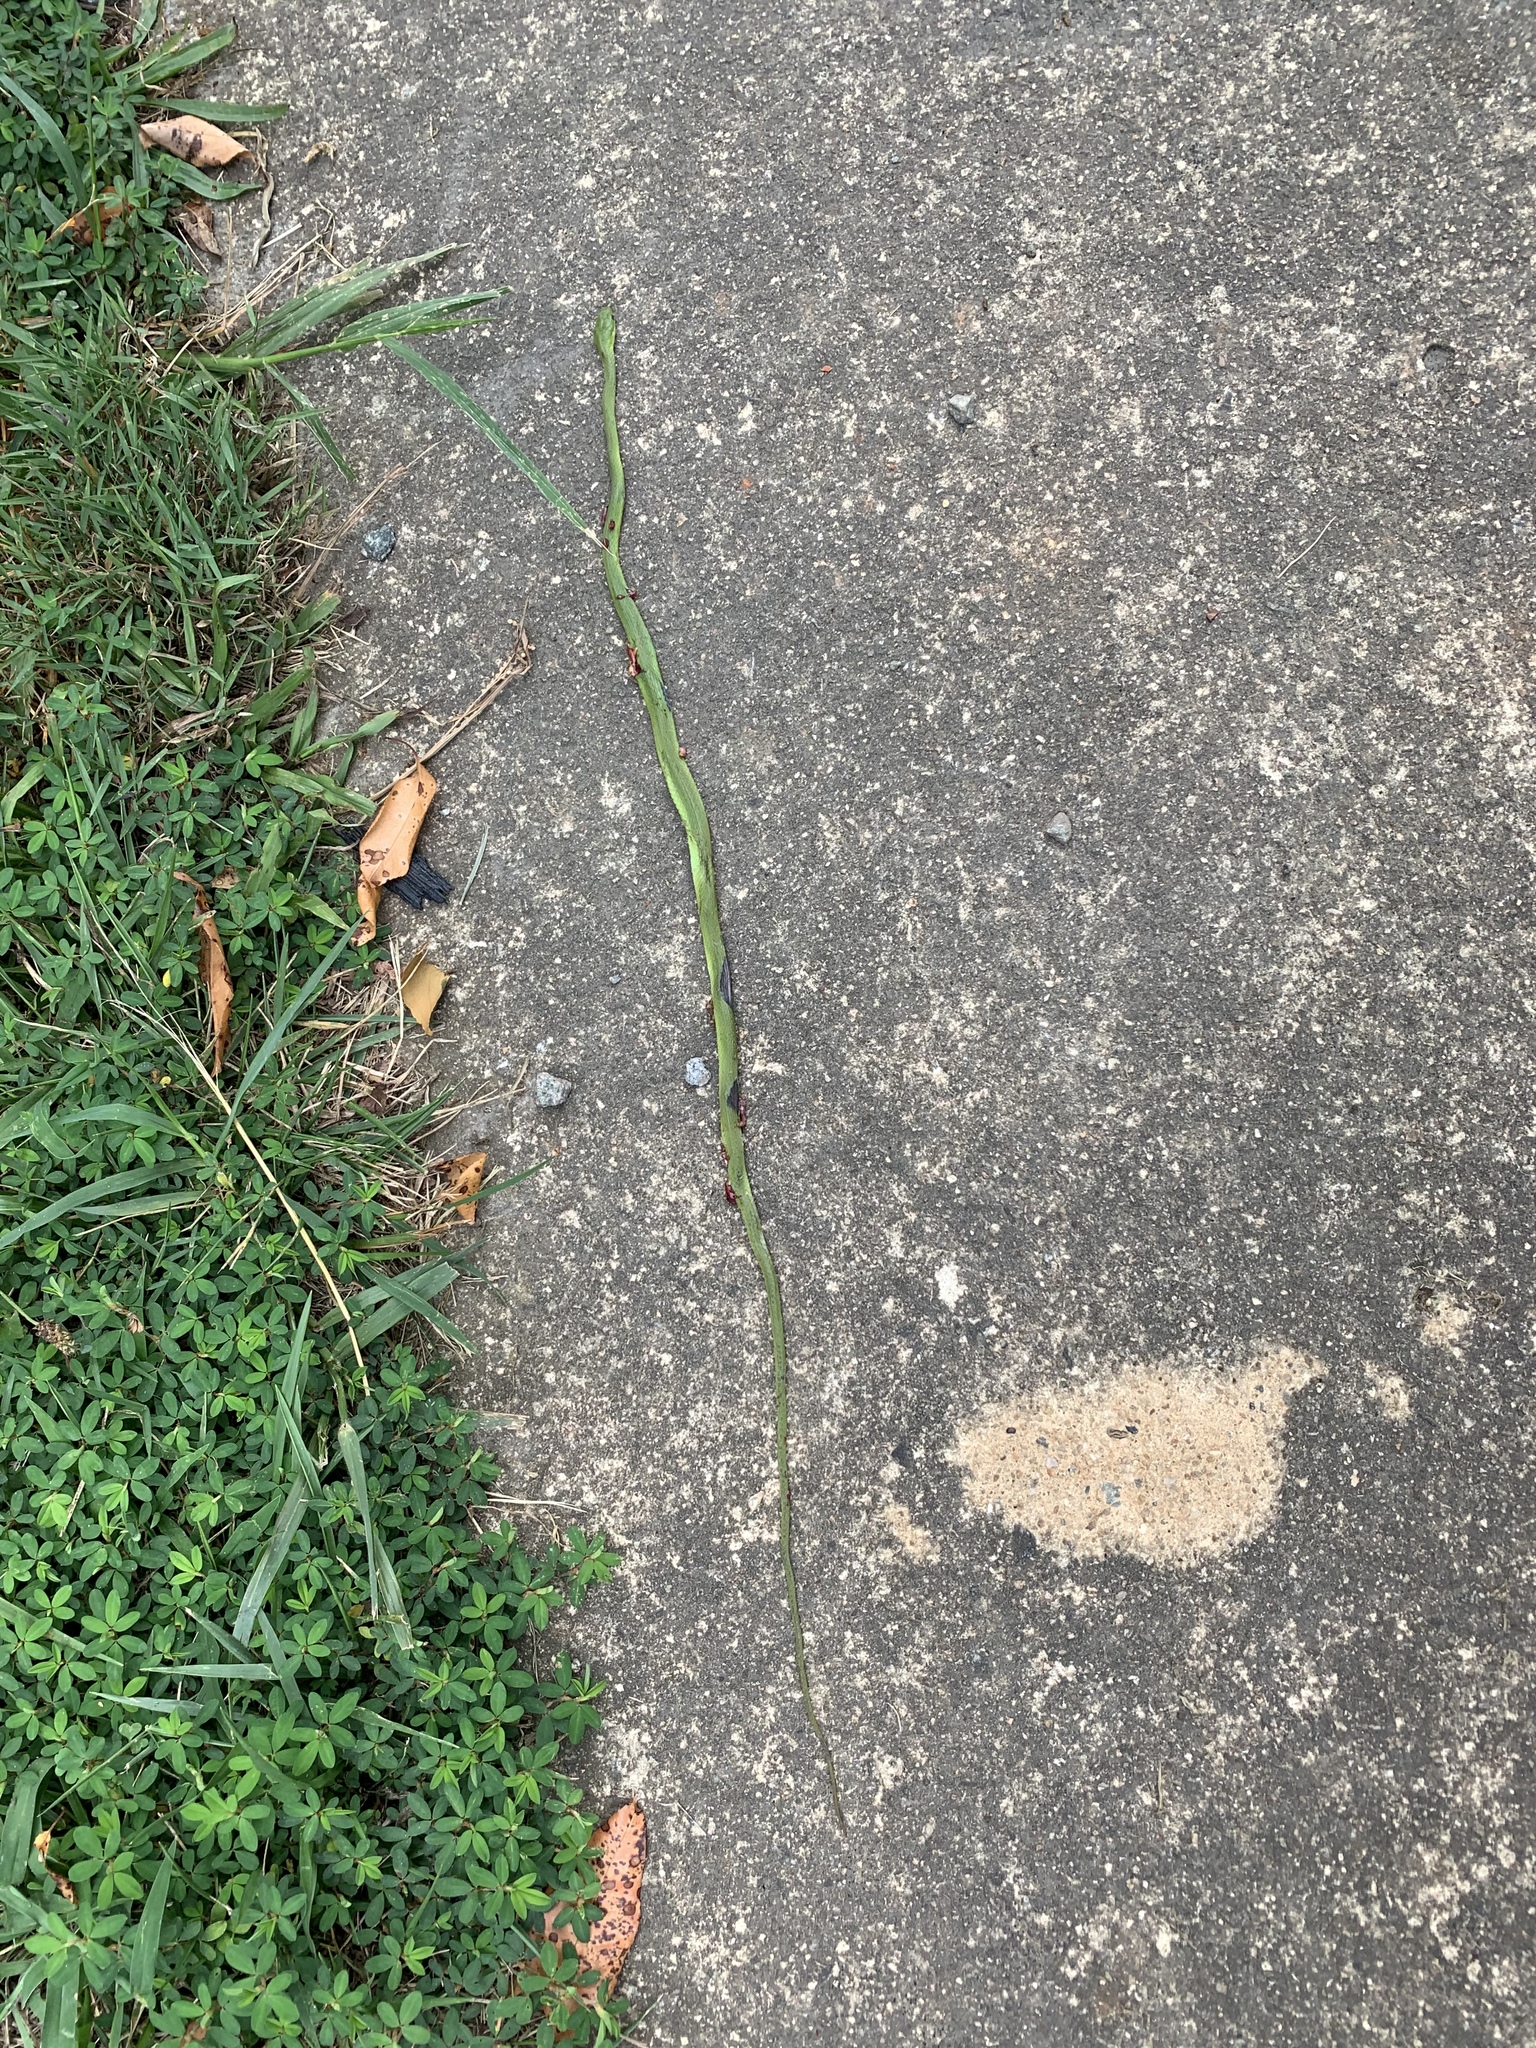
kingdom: Animalia
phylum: Chordata
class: Squamata
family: Colubridae
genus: Opheodrys
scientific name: Opheodrys aestivus
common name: Rough greensnake
